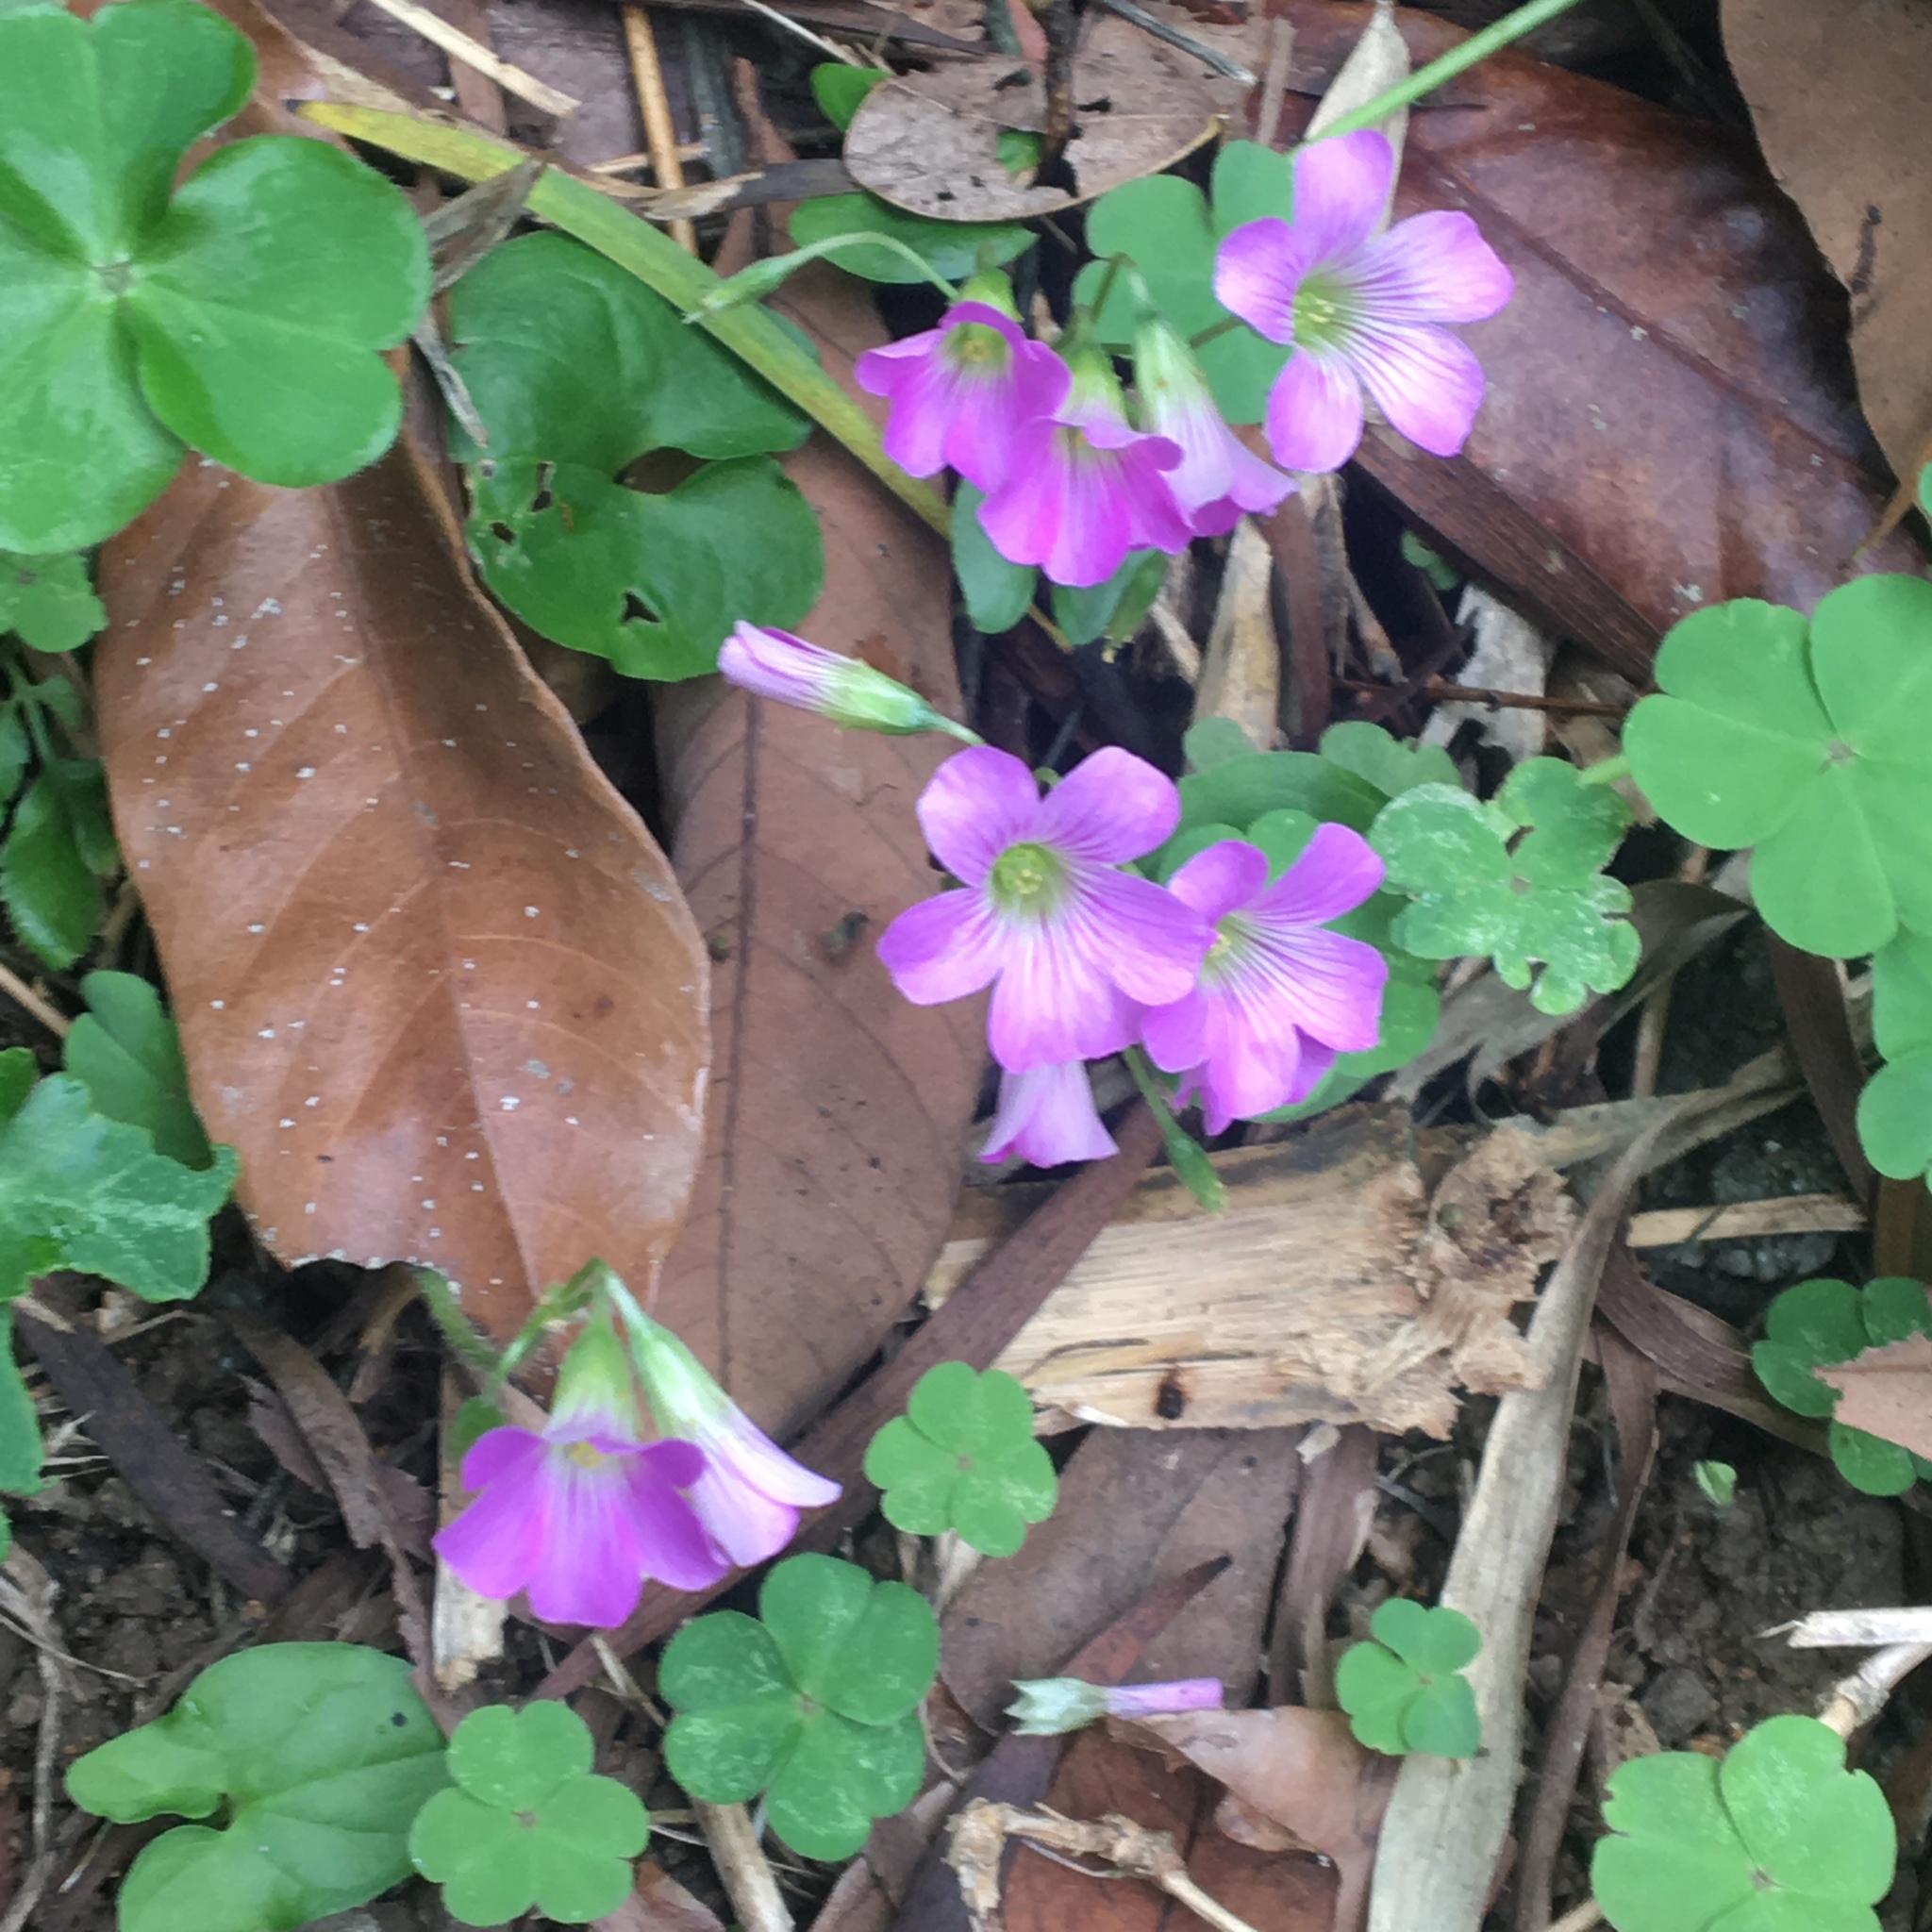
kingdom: Plantae
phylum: Tracheophyta
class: Magnoliopsida
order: Oxalidales
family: Oxalidaceae
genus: Oxalis
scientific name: Oxalis debilis
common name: Large-flowered pink-sorrel
